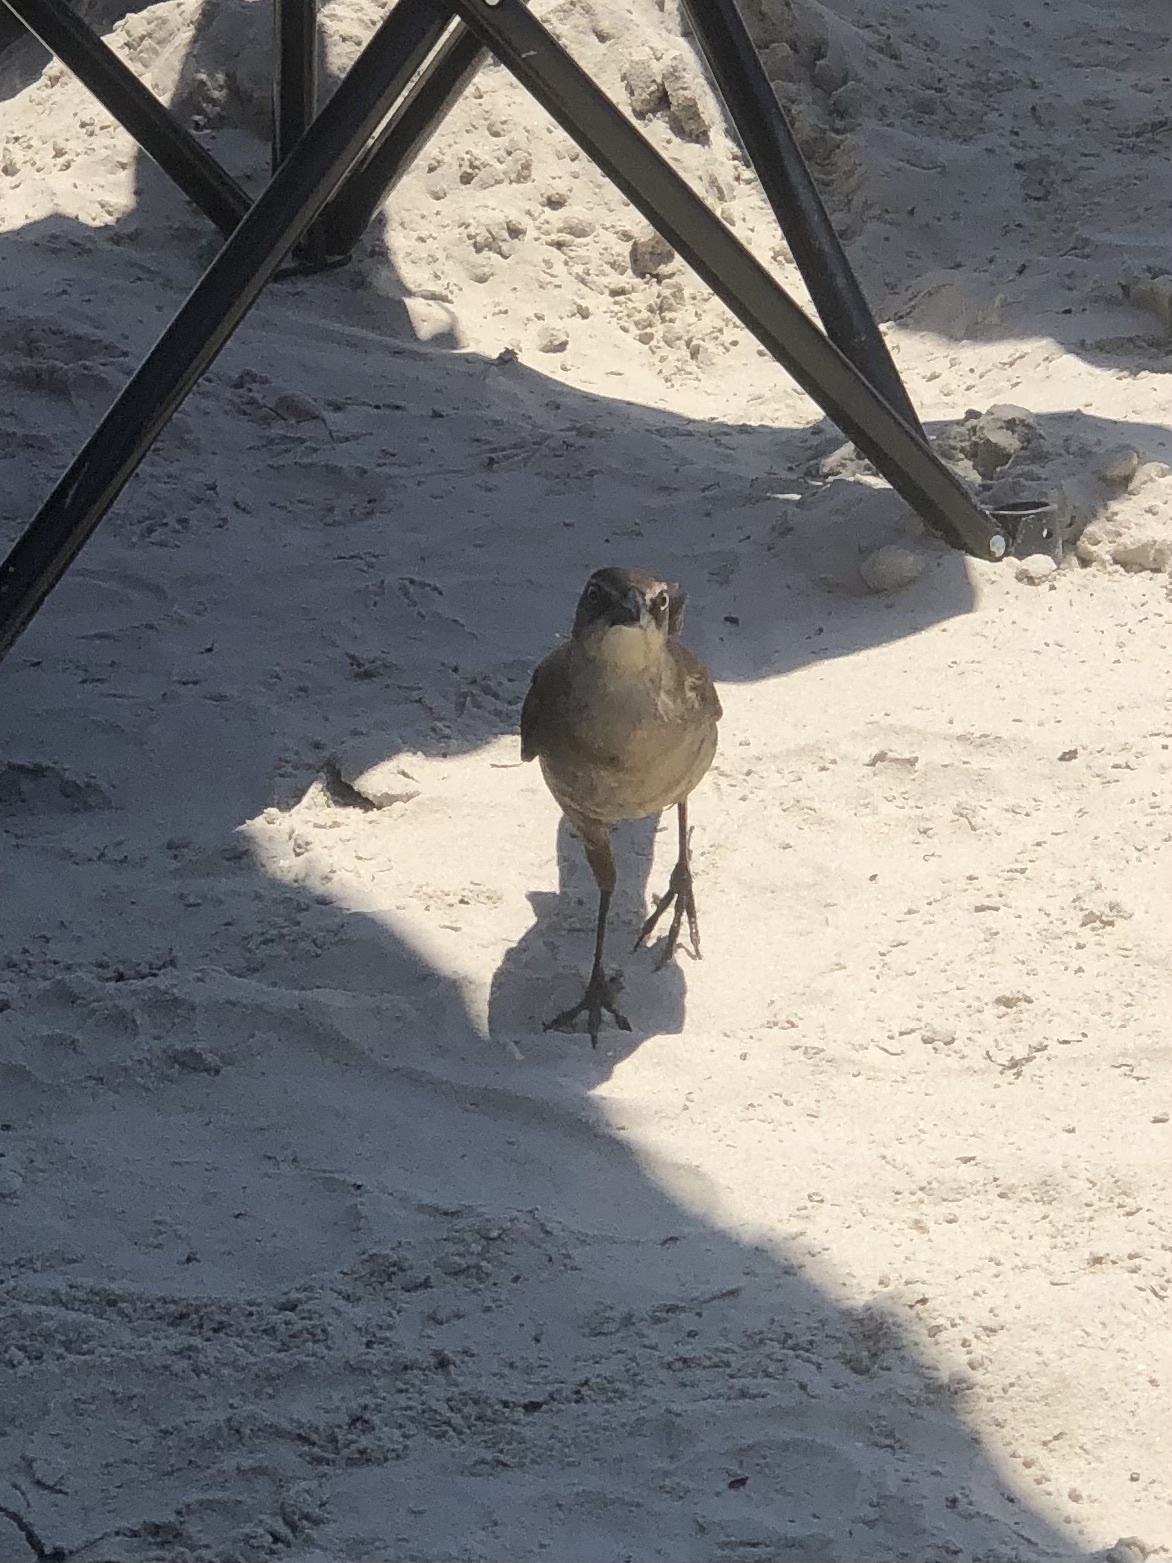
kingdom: Animalia
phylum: Chordata
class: Aves
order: Passeriformes
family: Icteridae
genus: Quiscalus
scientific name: Quiscalus mexicanus
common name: Great-tailed grackle
